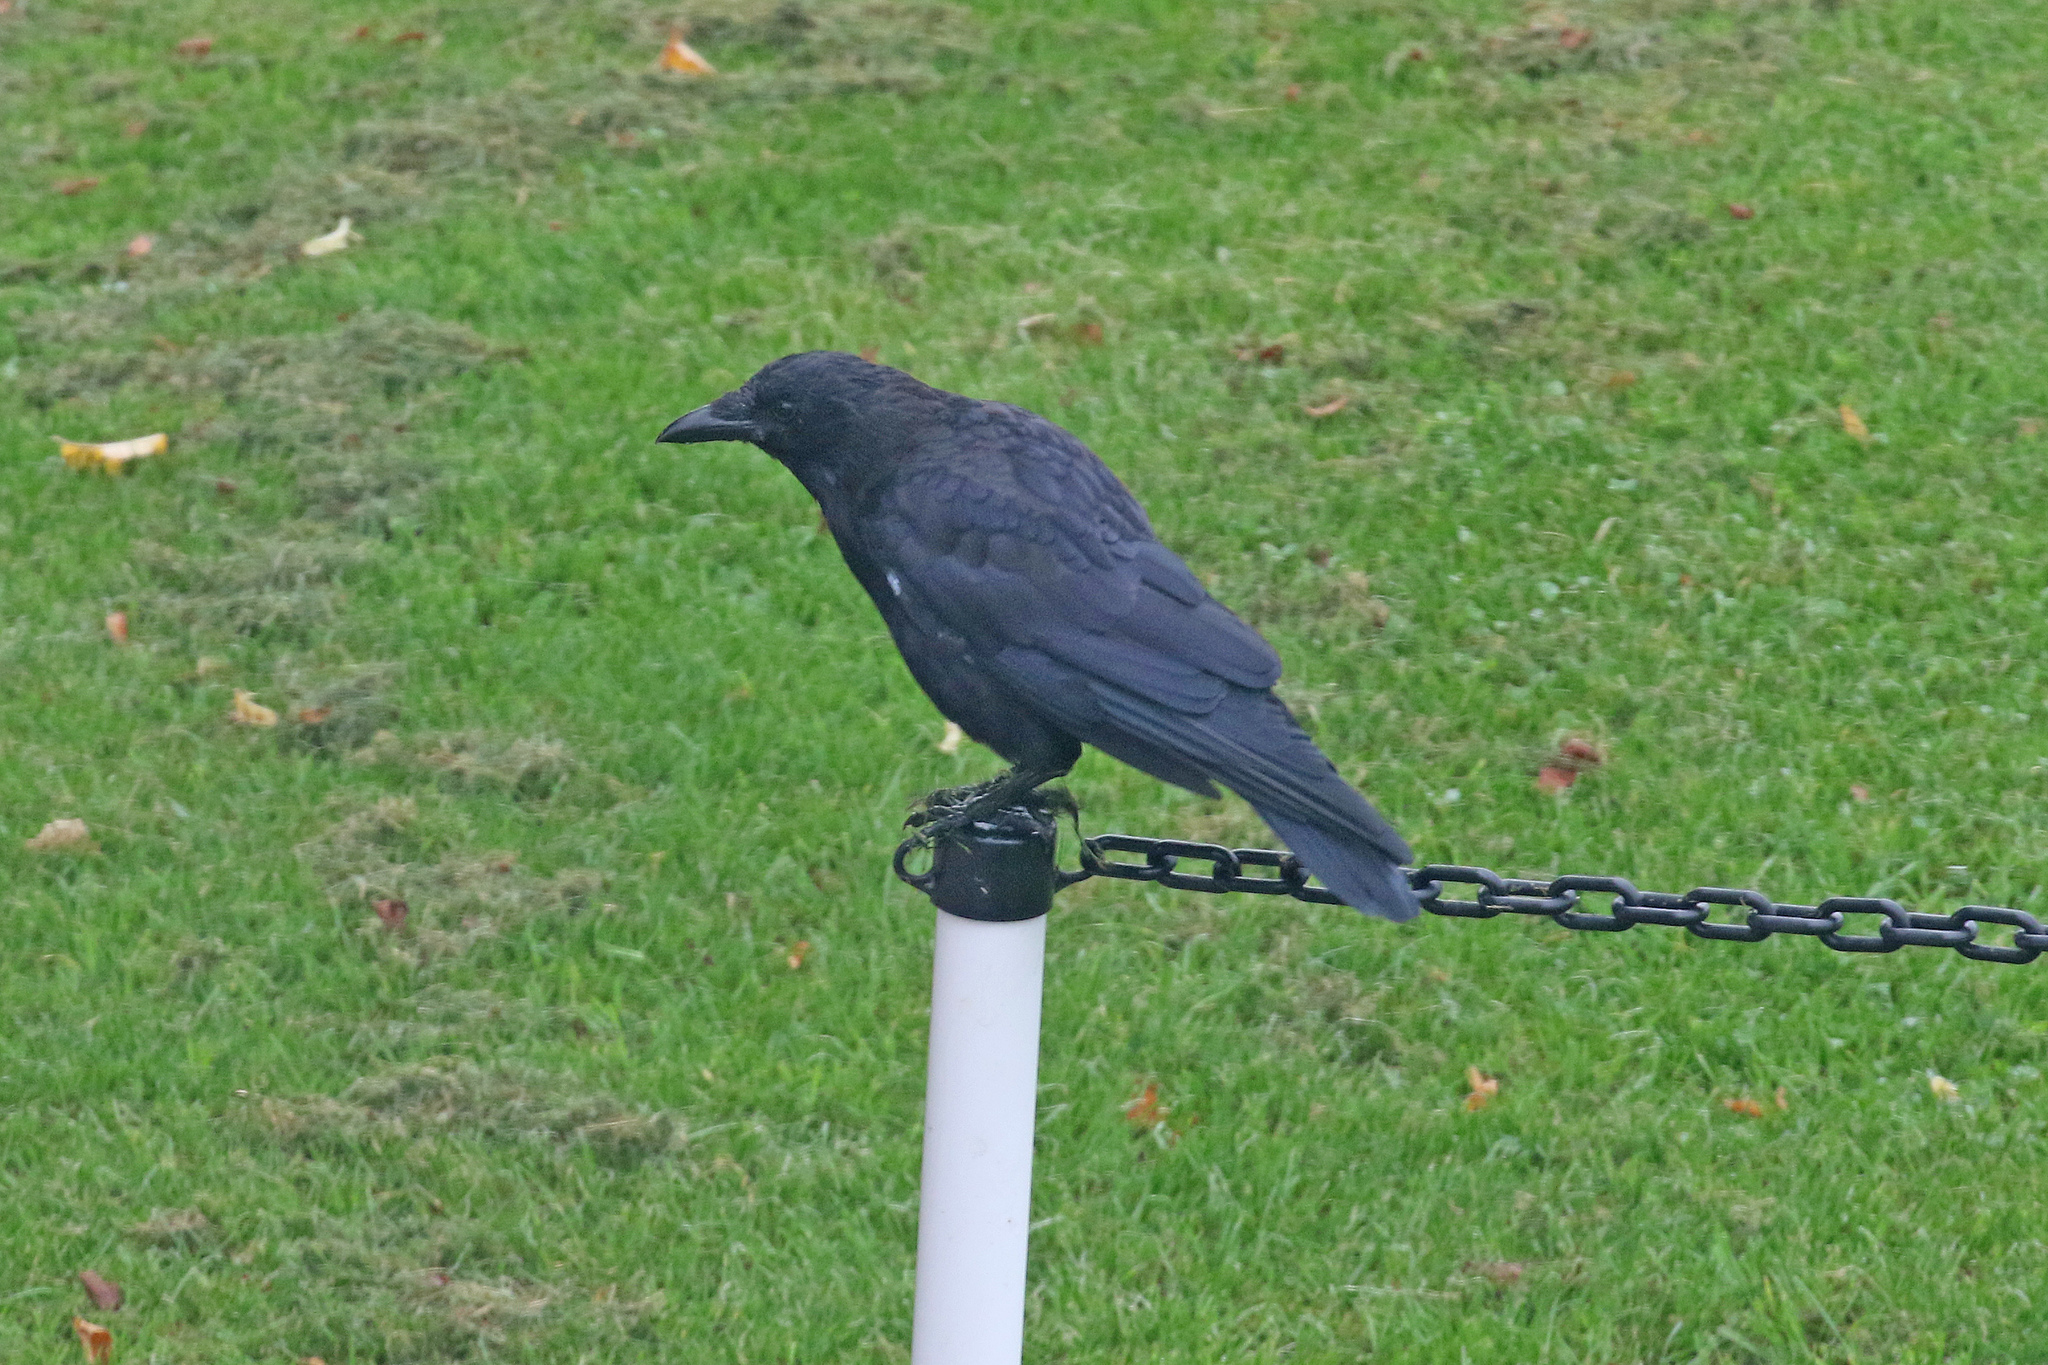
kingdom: Animalia
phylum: Chordata
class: Aves
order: Passeriformes
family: Corvidae
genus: Corvus
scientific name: Corvus corone
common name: Carrion crow
